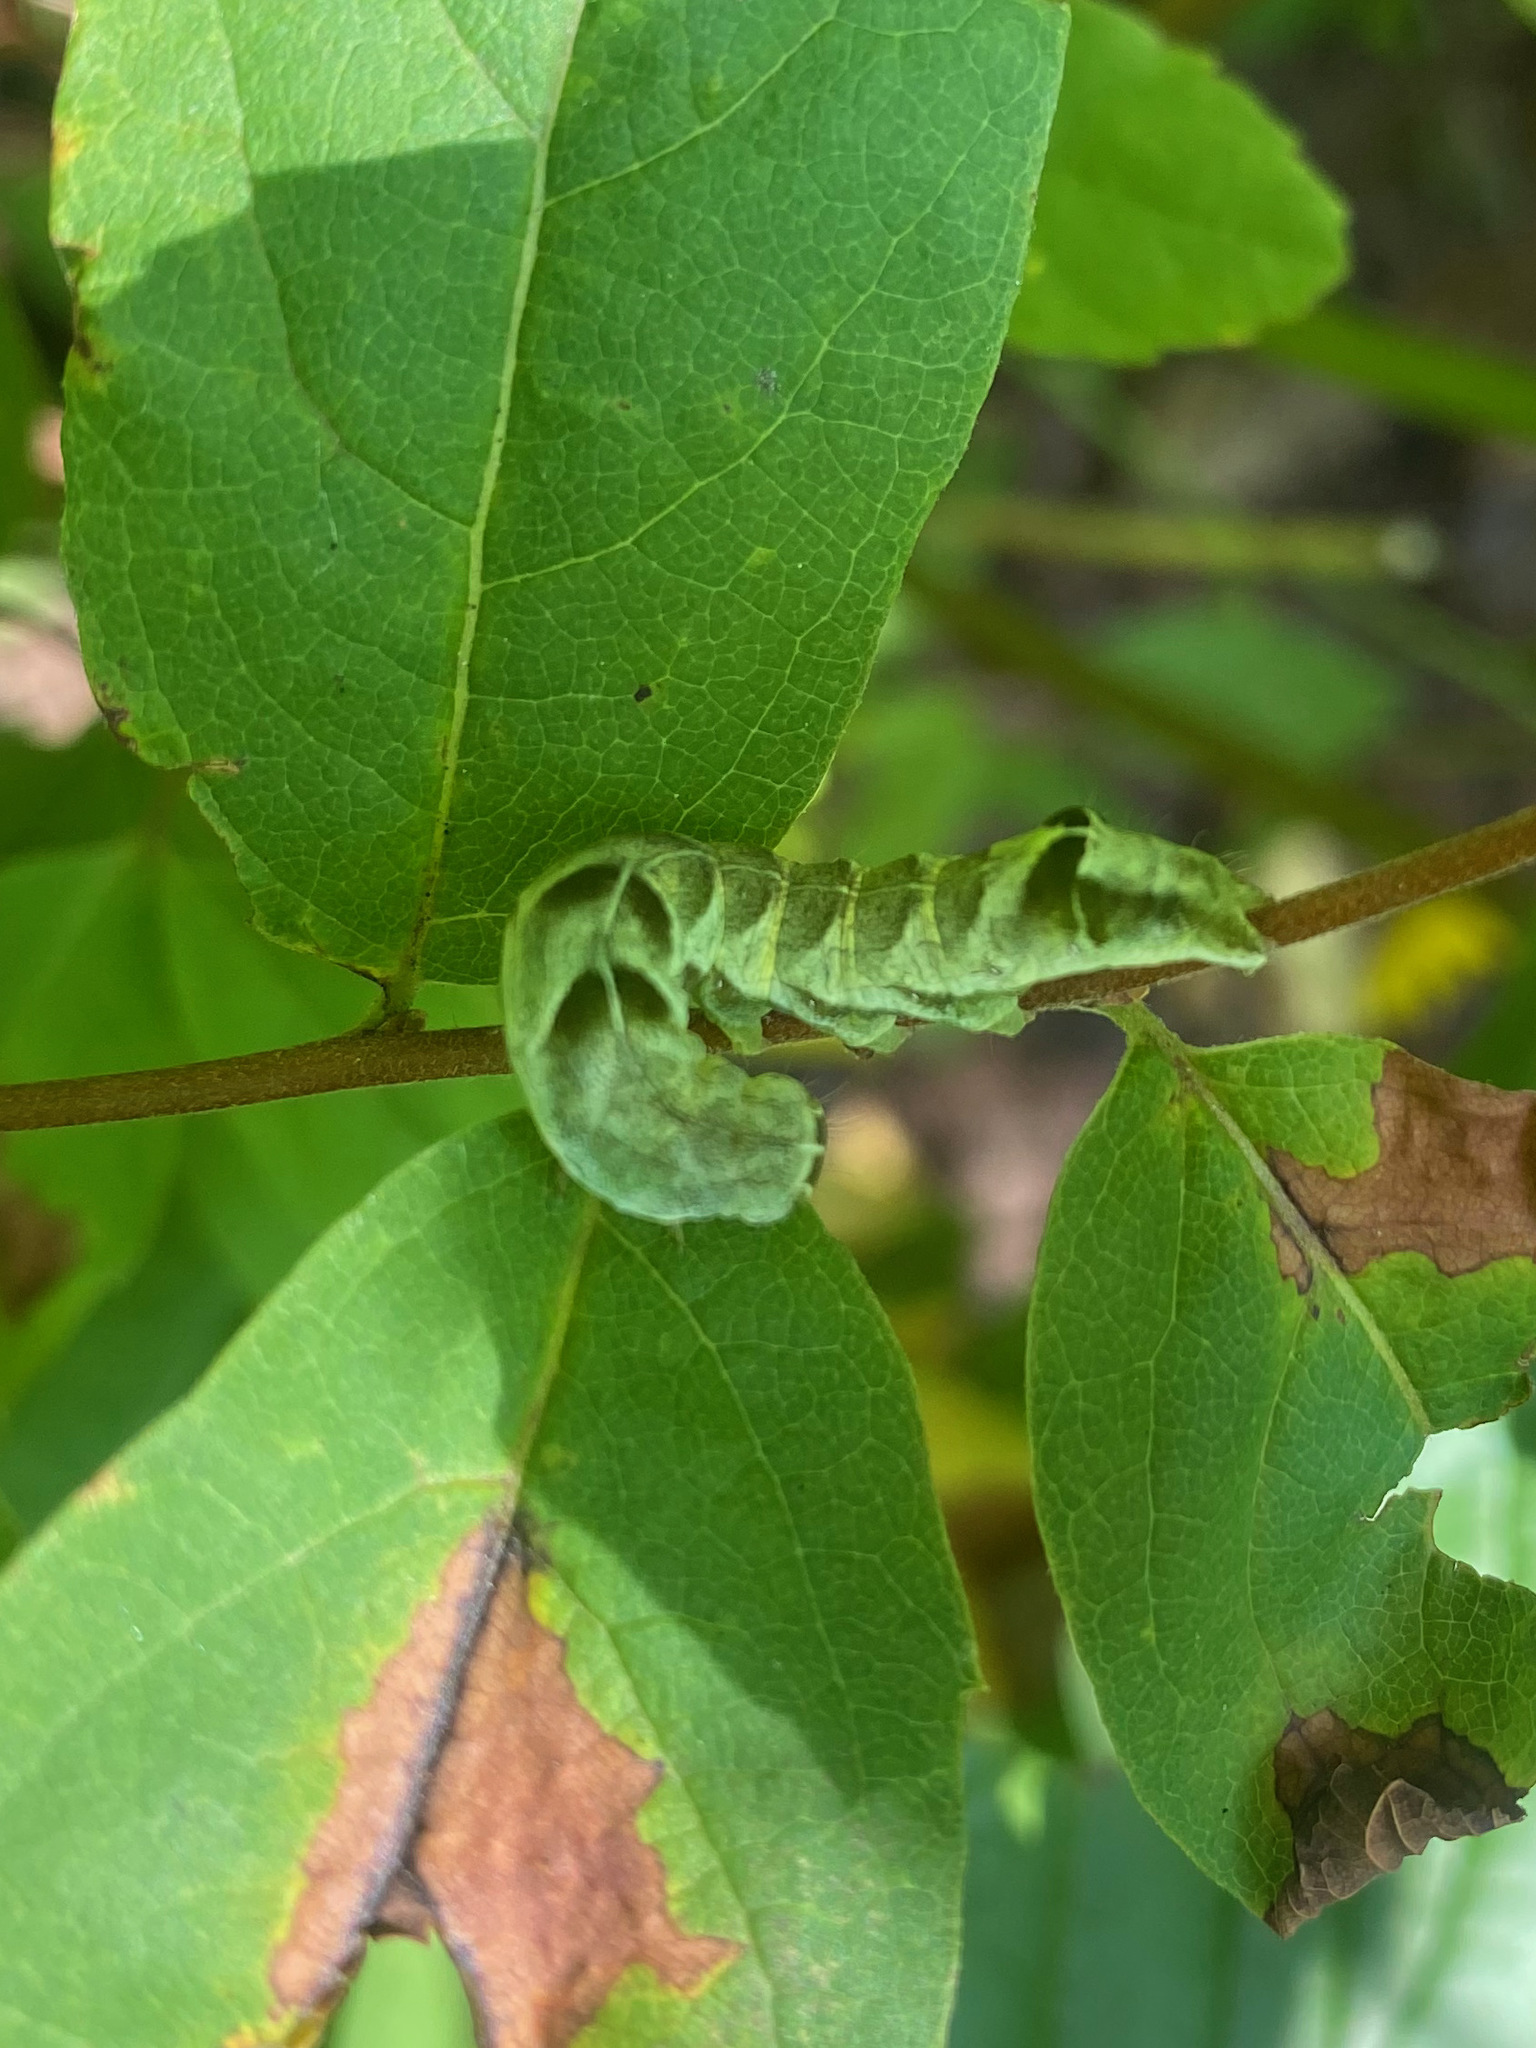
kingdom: Animalia
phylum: Arthropoda
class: Insecta
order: Lepidoptera
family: Noctuidae
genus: Melanchra
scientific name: Melanchra adjuncta
